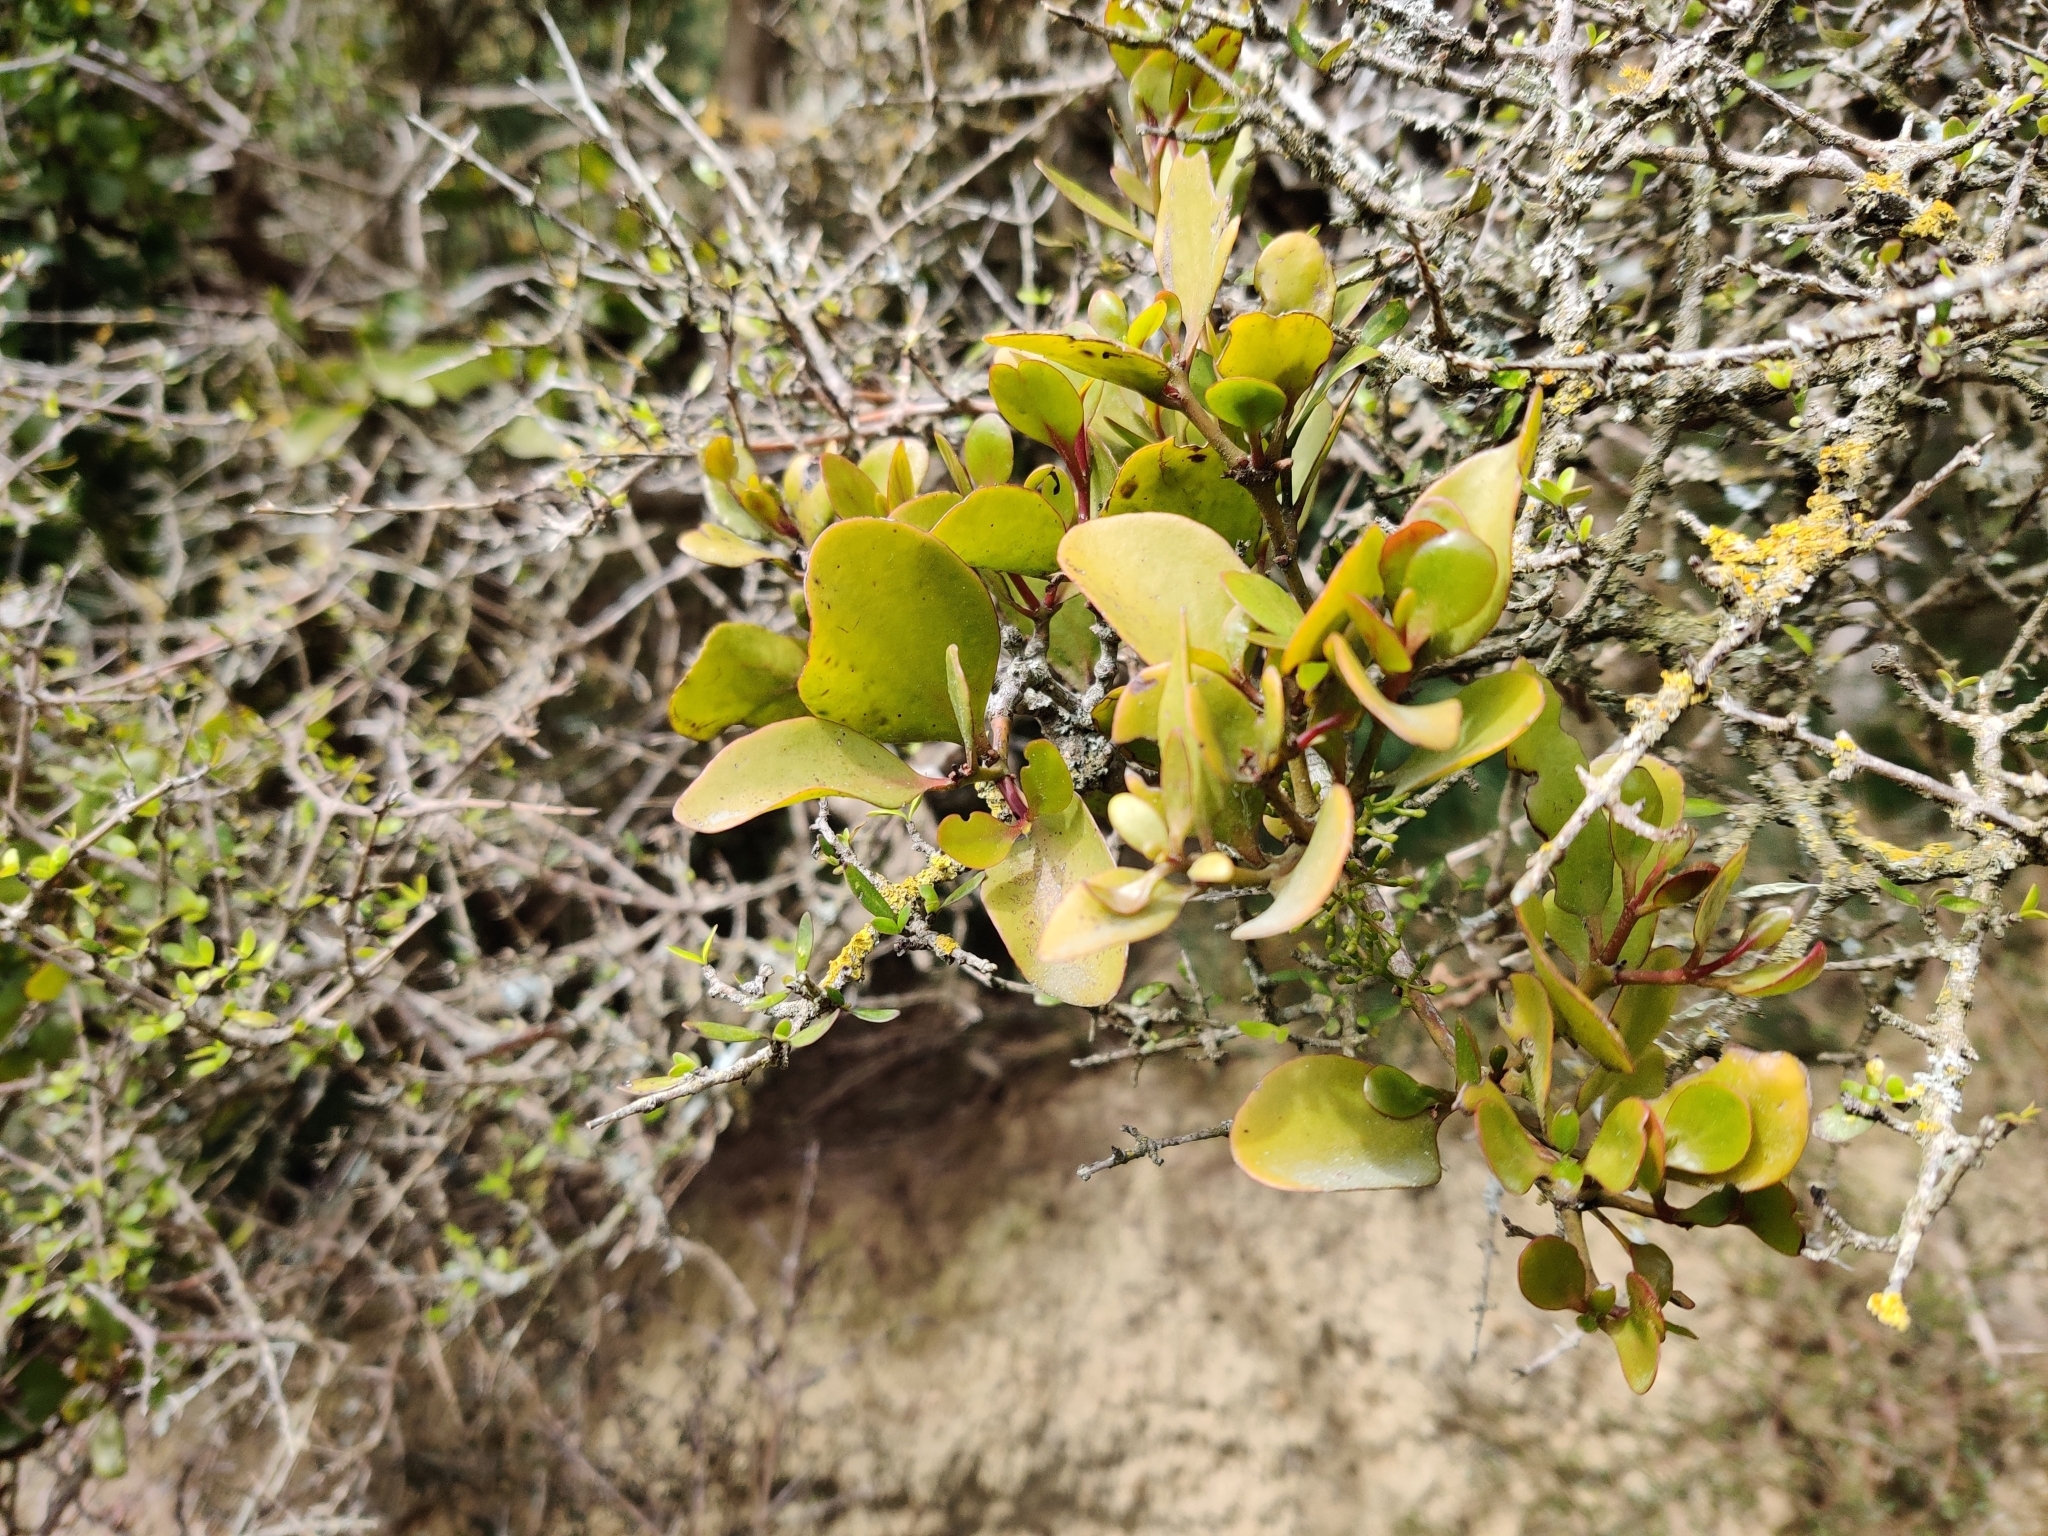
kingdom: Plantae
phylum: Tracheophyta
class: Magnoliopsida
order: Santalales
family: Loranthaceae
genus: Ileostylus
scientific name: Ileostylus micranthus
